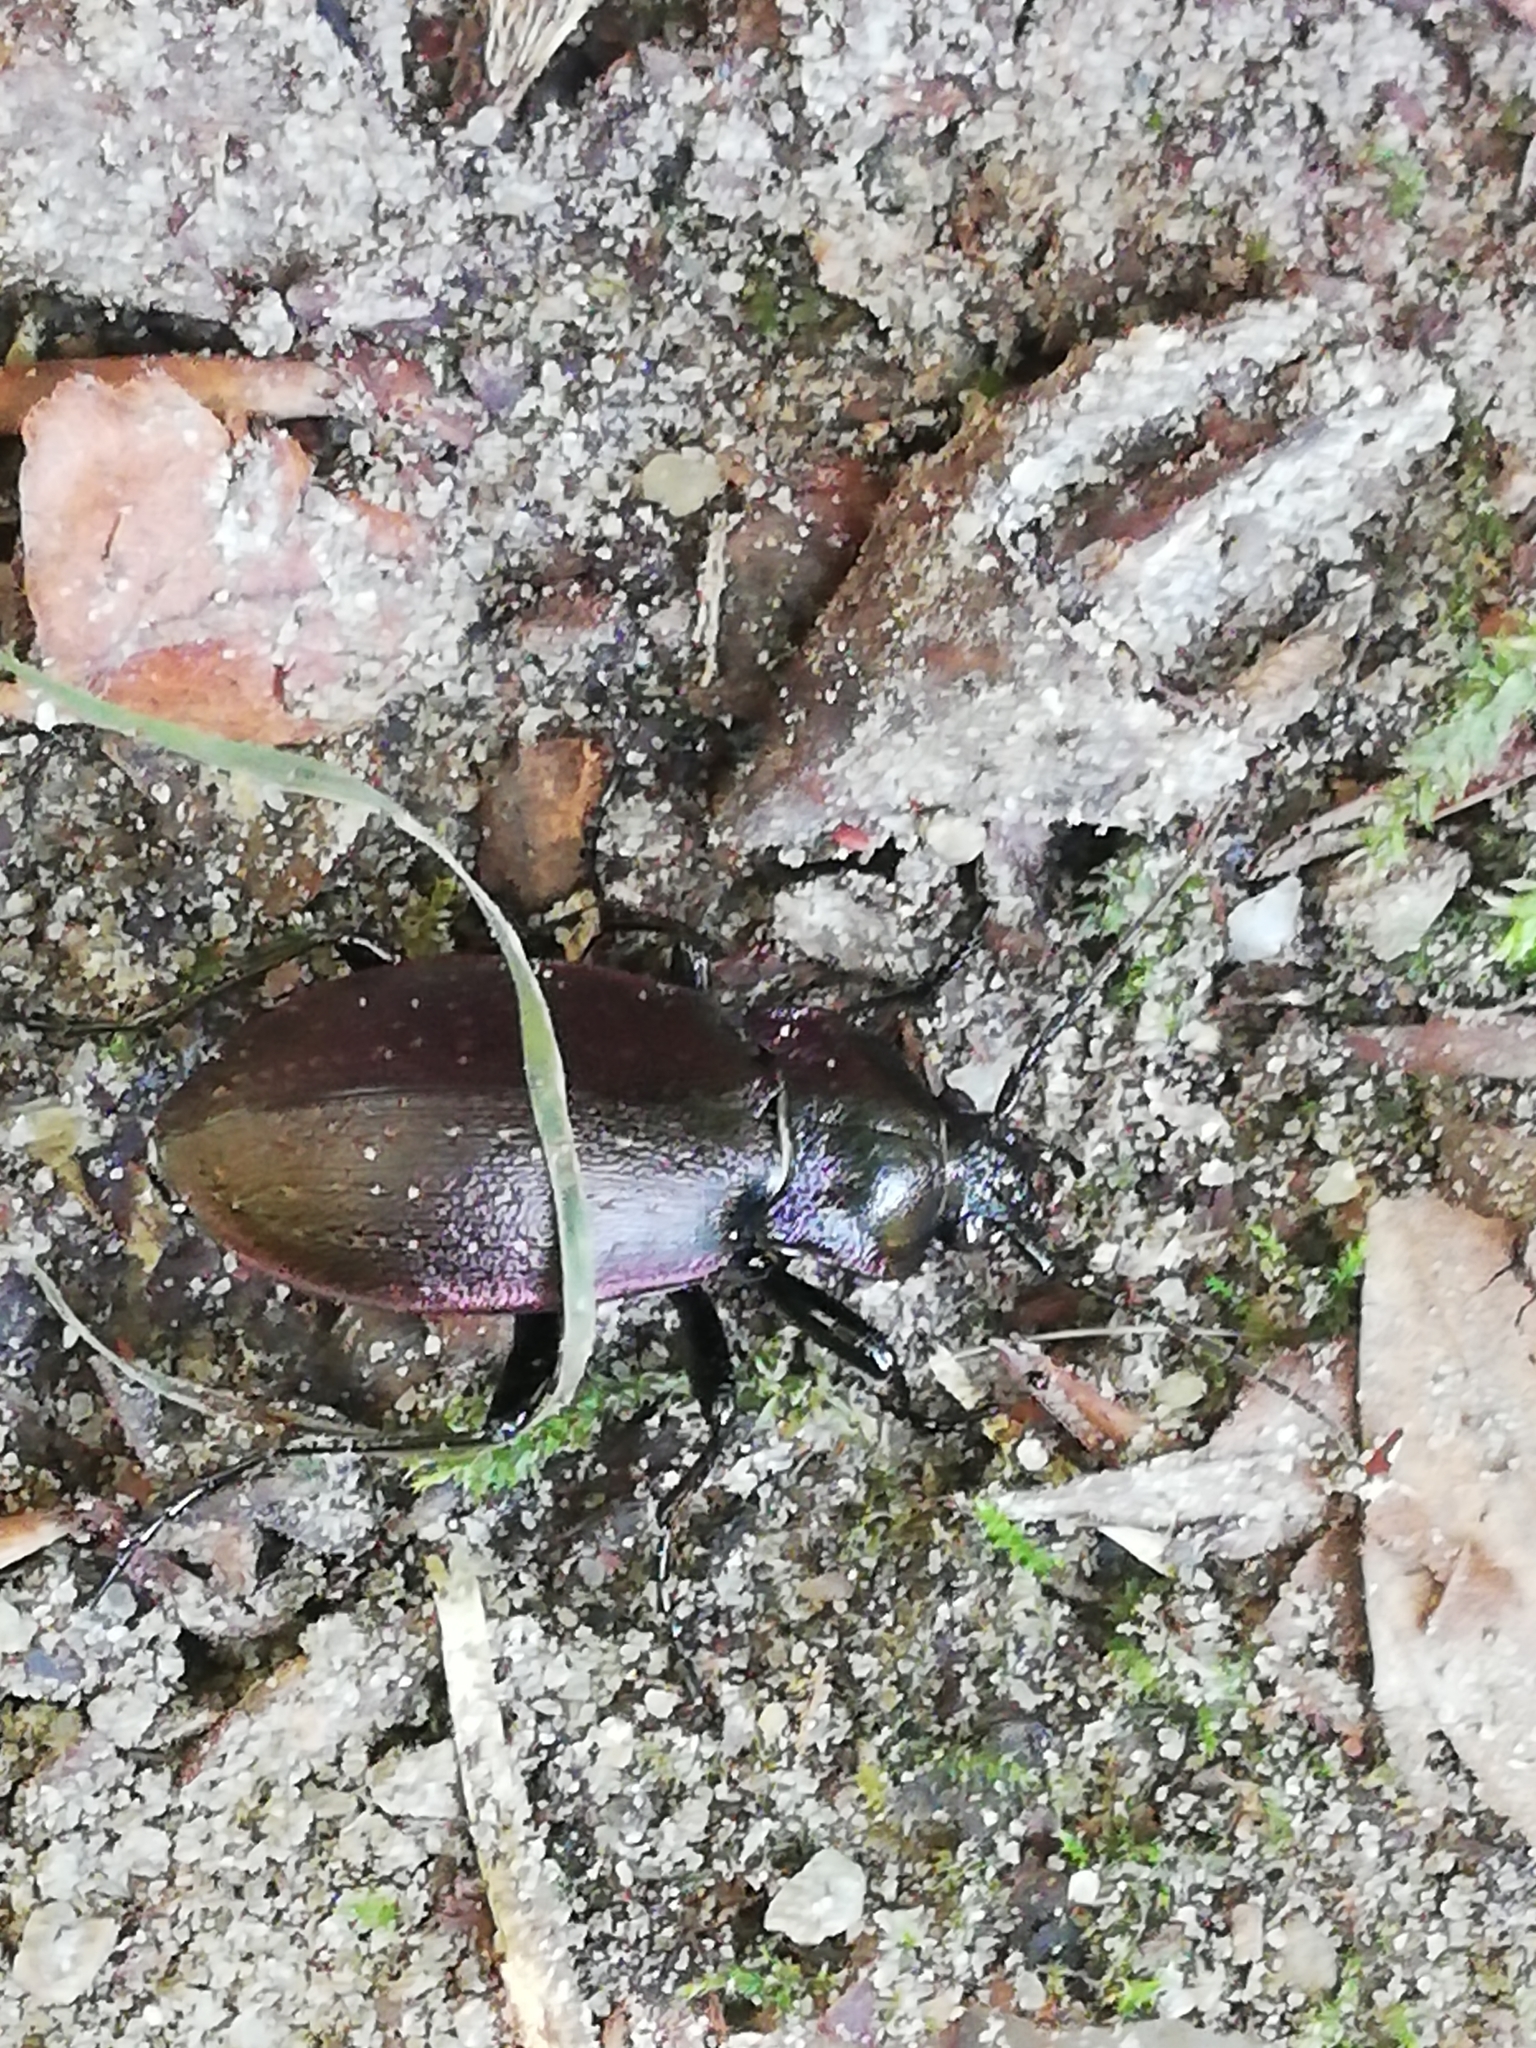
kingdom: Animalia
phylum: Arthropoda
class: Insecta
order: Coleoptera
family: Carabidae
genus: Carabus
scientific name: Carabus nemoralis
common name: European ground beetle
